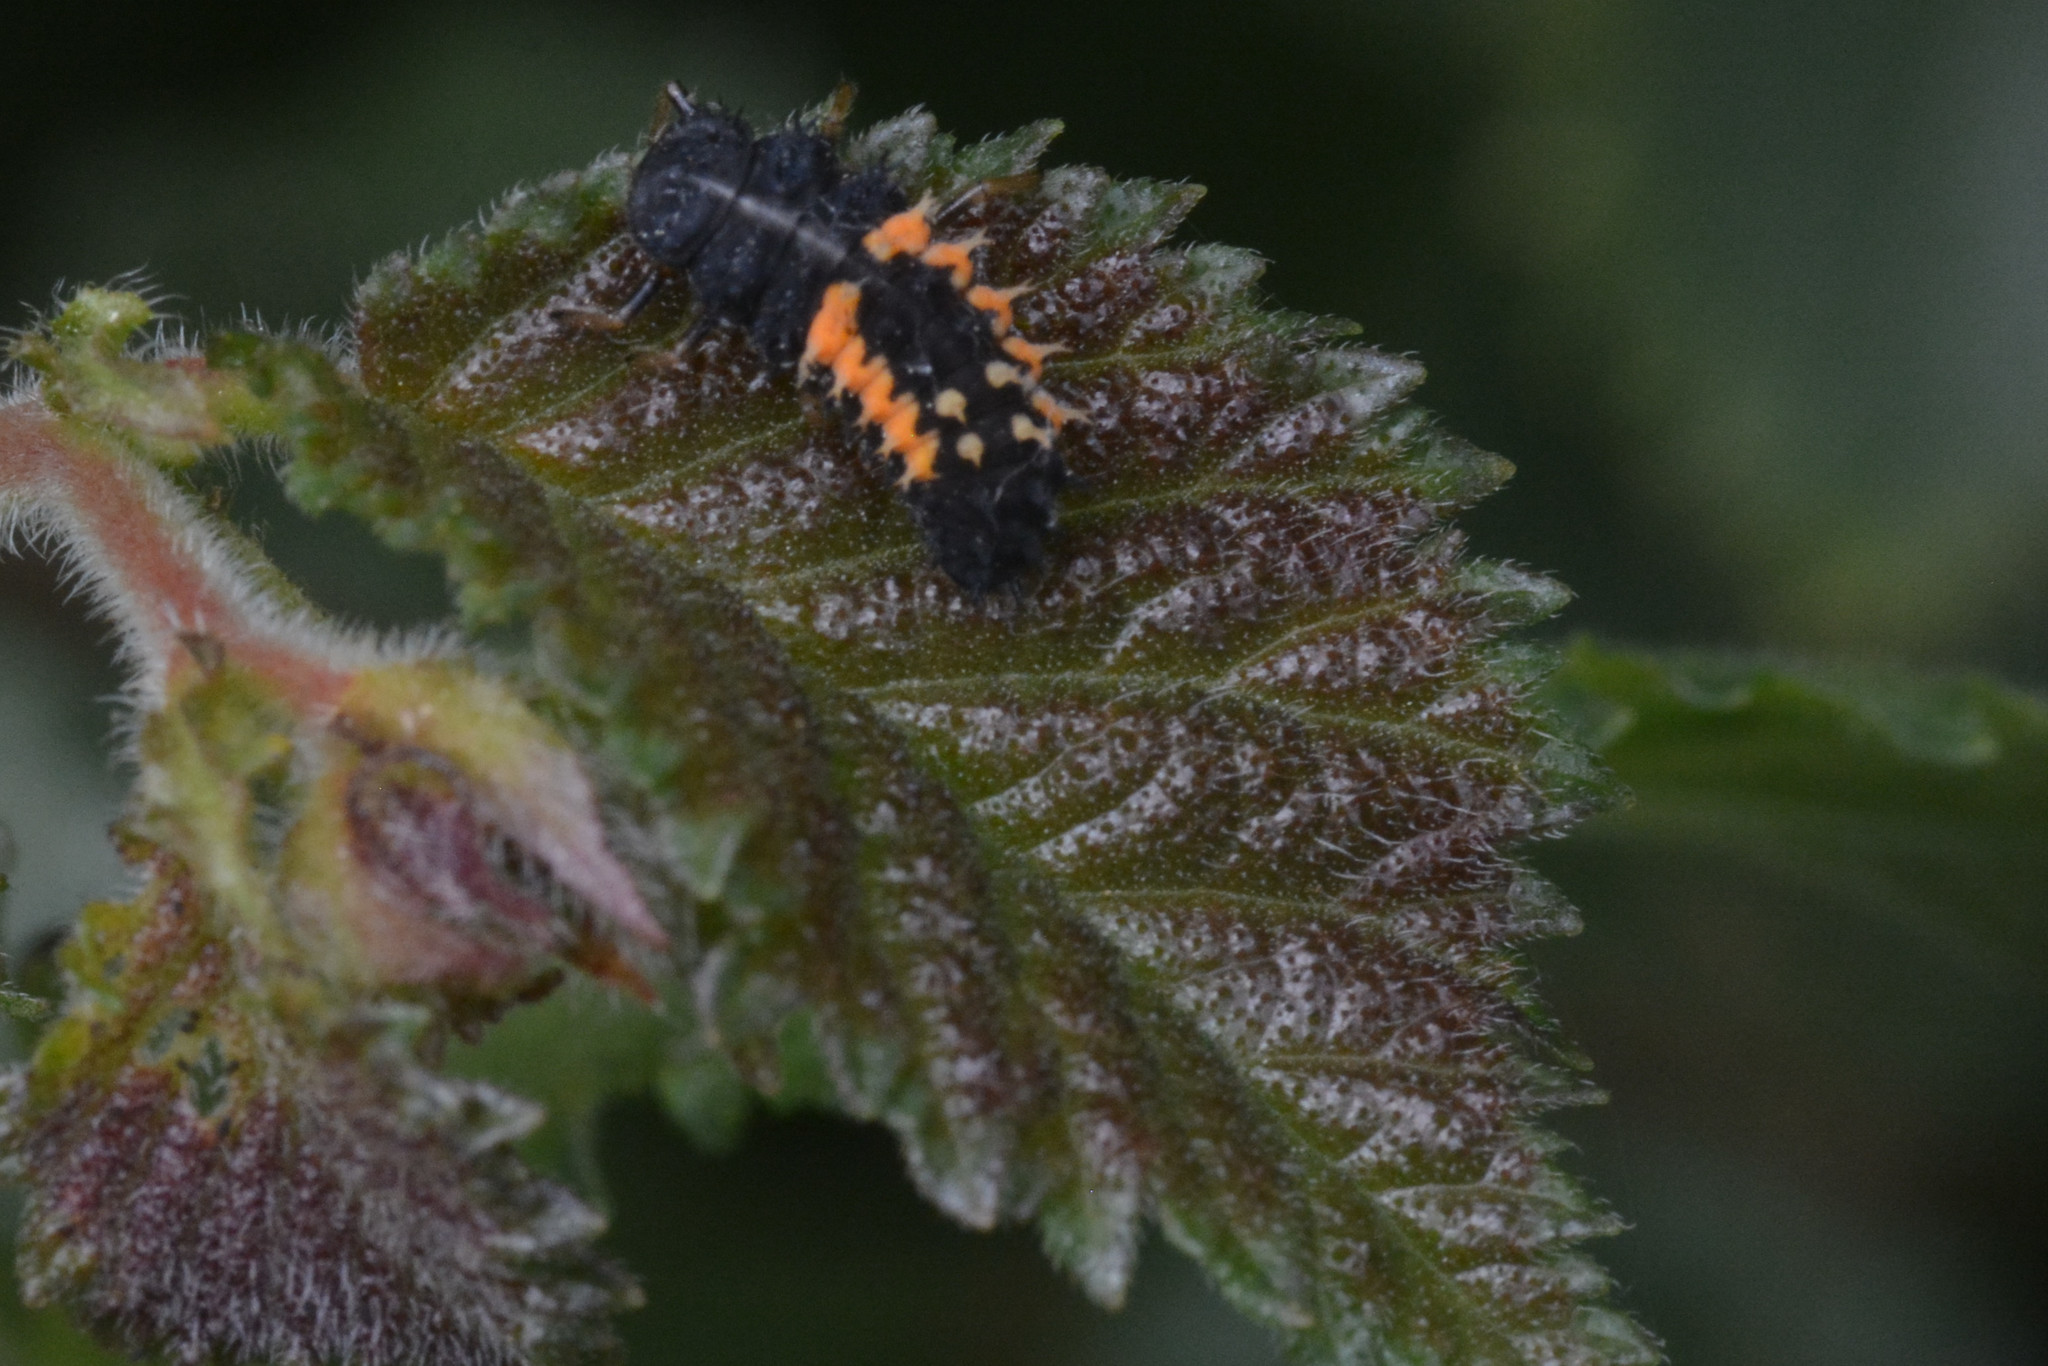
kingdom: Animalia
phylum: Arthropoda
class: Insecta
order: Coleoptera
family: Coccinellidae
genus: Harmonia
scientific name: Harmonia axyridis
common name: Harlequin ladybird
